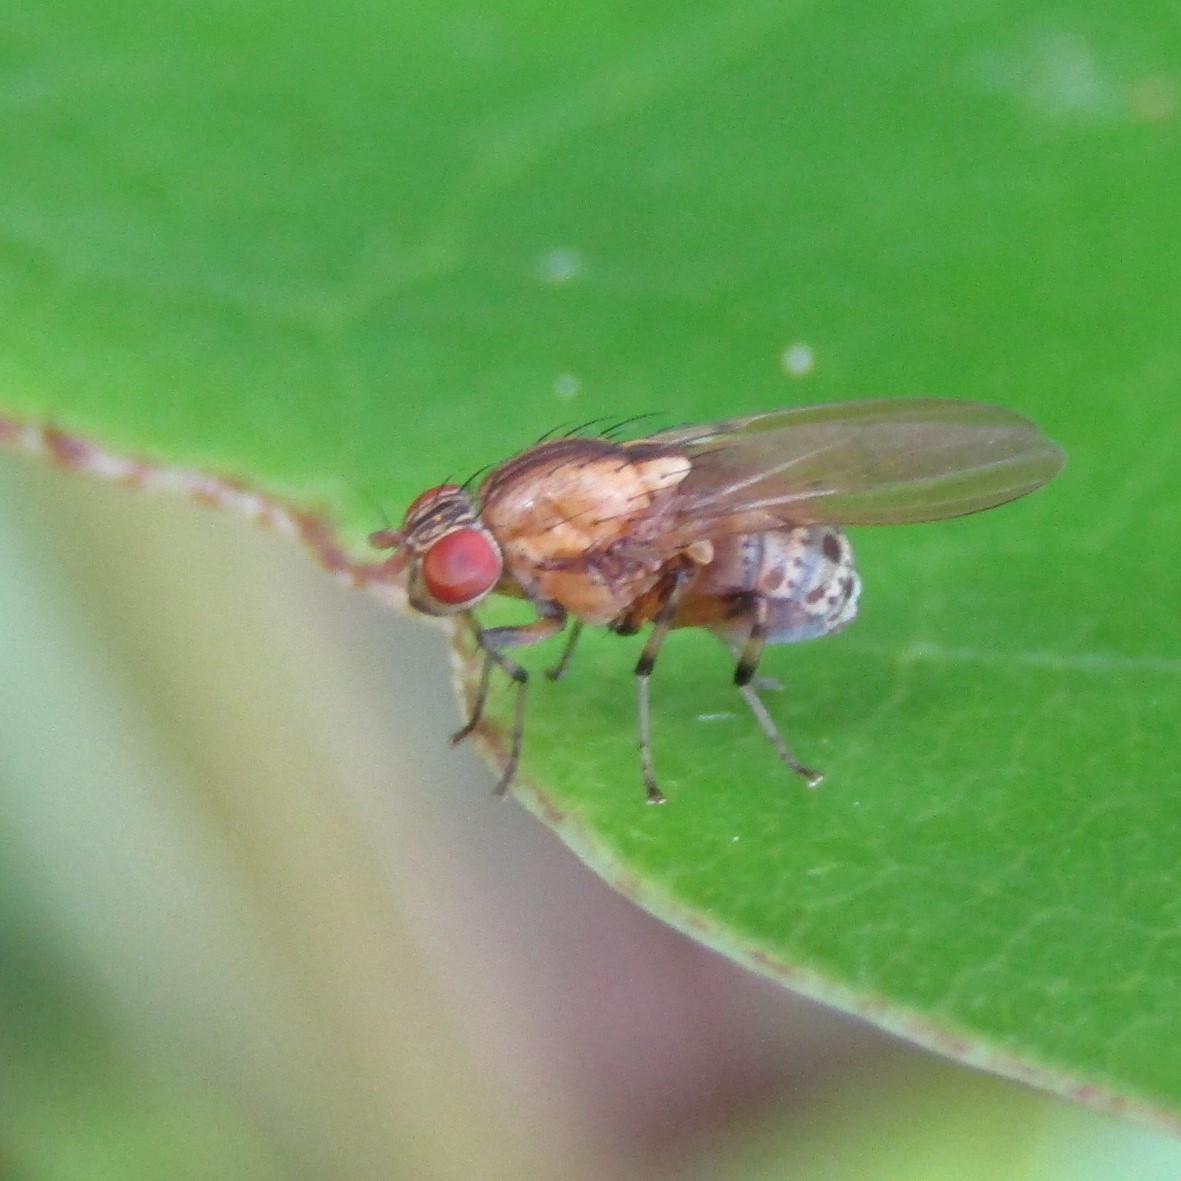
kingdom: Animalia
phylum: Arthropoda
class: Insecta
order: Diptera
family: Lauxaniidae
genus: Sapromyza
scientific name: Sapromyza neozelandica
